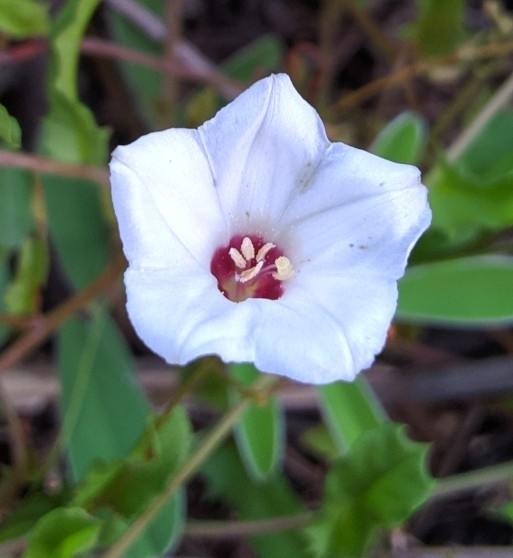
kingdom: Plantae
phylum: Tracheophyta
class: Magnoliopsida
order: Solanales
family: Convolvulaceae
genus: Xenostegia
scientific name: Xenostegia tridentata
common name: African morningvine
